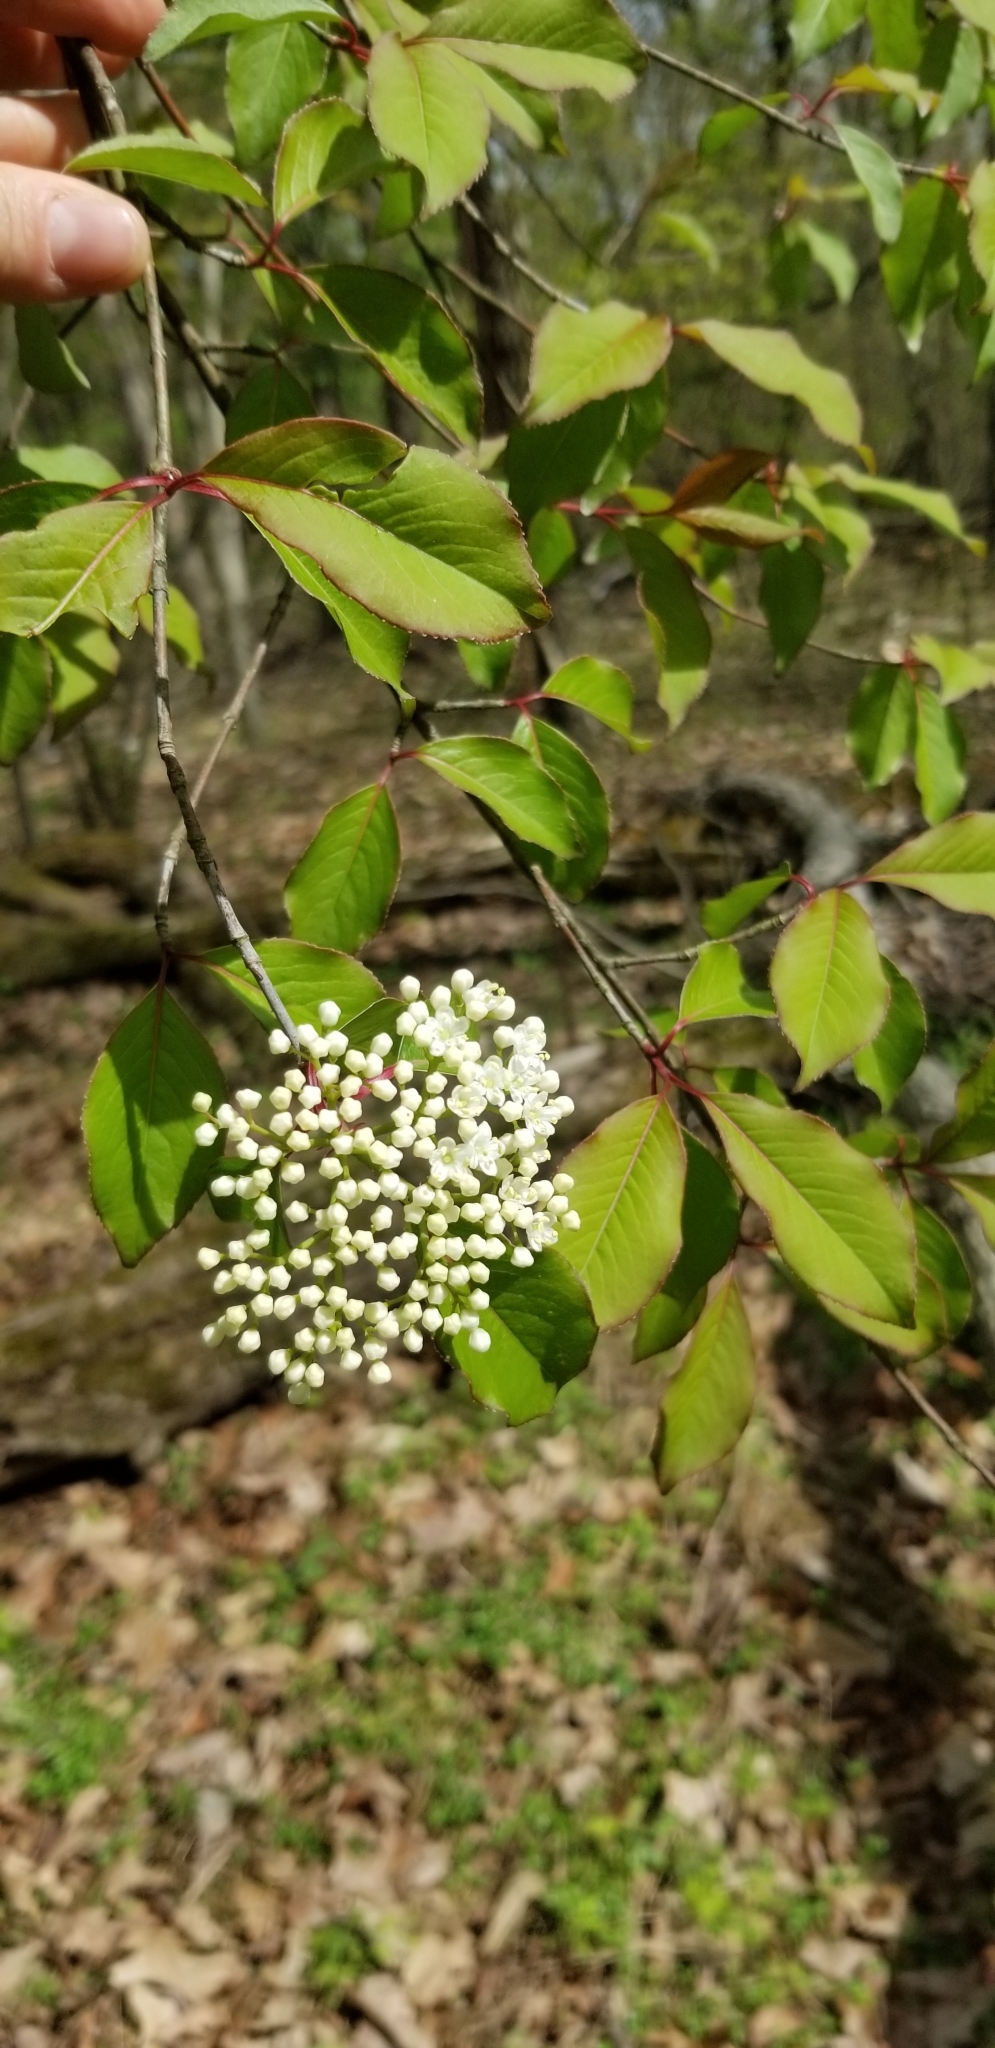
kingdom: Plantae
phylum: Tracheophyta
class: Magnoliopsida
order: Dipsacales
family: Viburnaceae
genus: Viburnum
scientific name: Viburnum prunifolium
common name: Black haw
